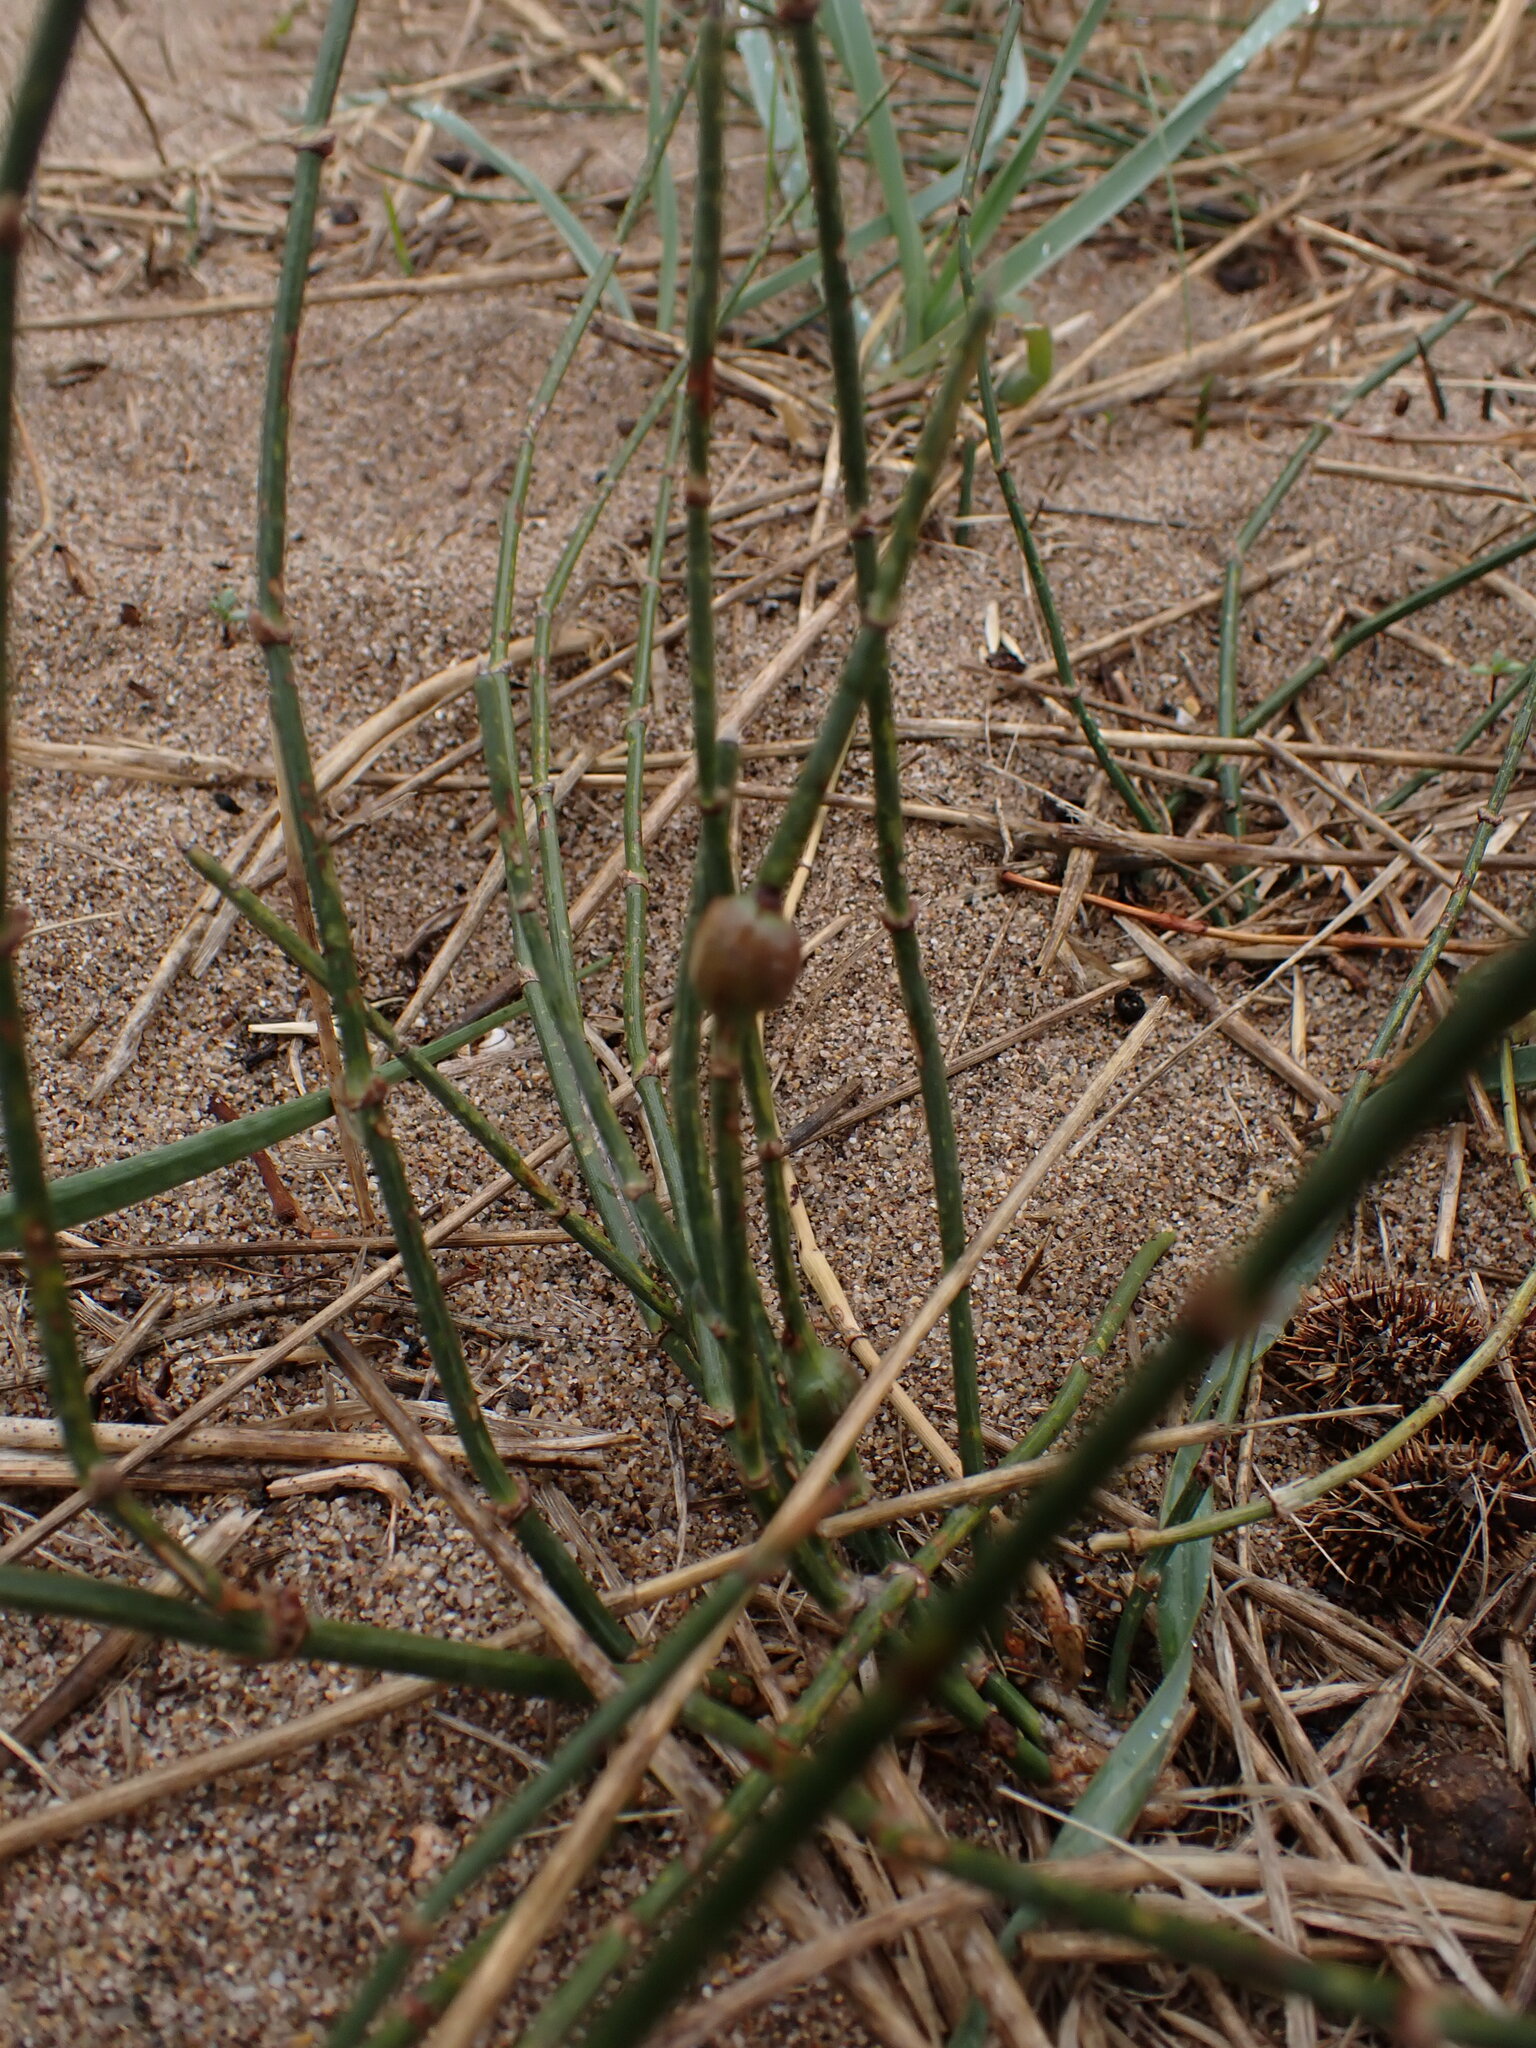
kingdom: Plantae
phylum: Tracheophyta
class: Gnetopsida
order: Ephedrales
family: Ephedraceae
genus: Ephedra
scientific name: Ephedra distachya
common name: Sea grape
